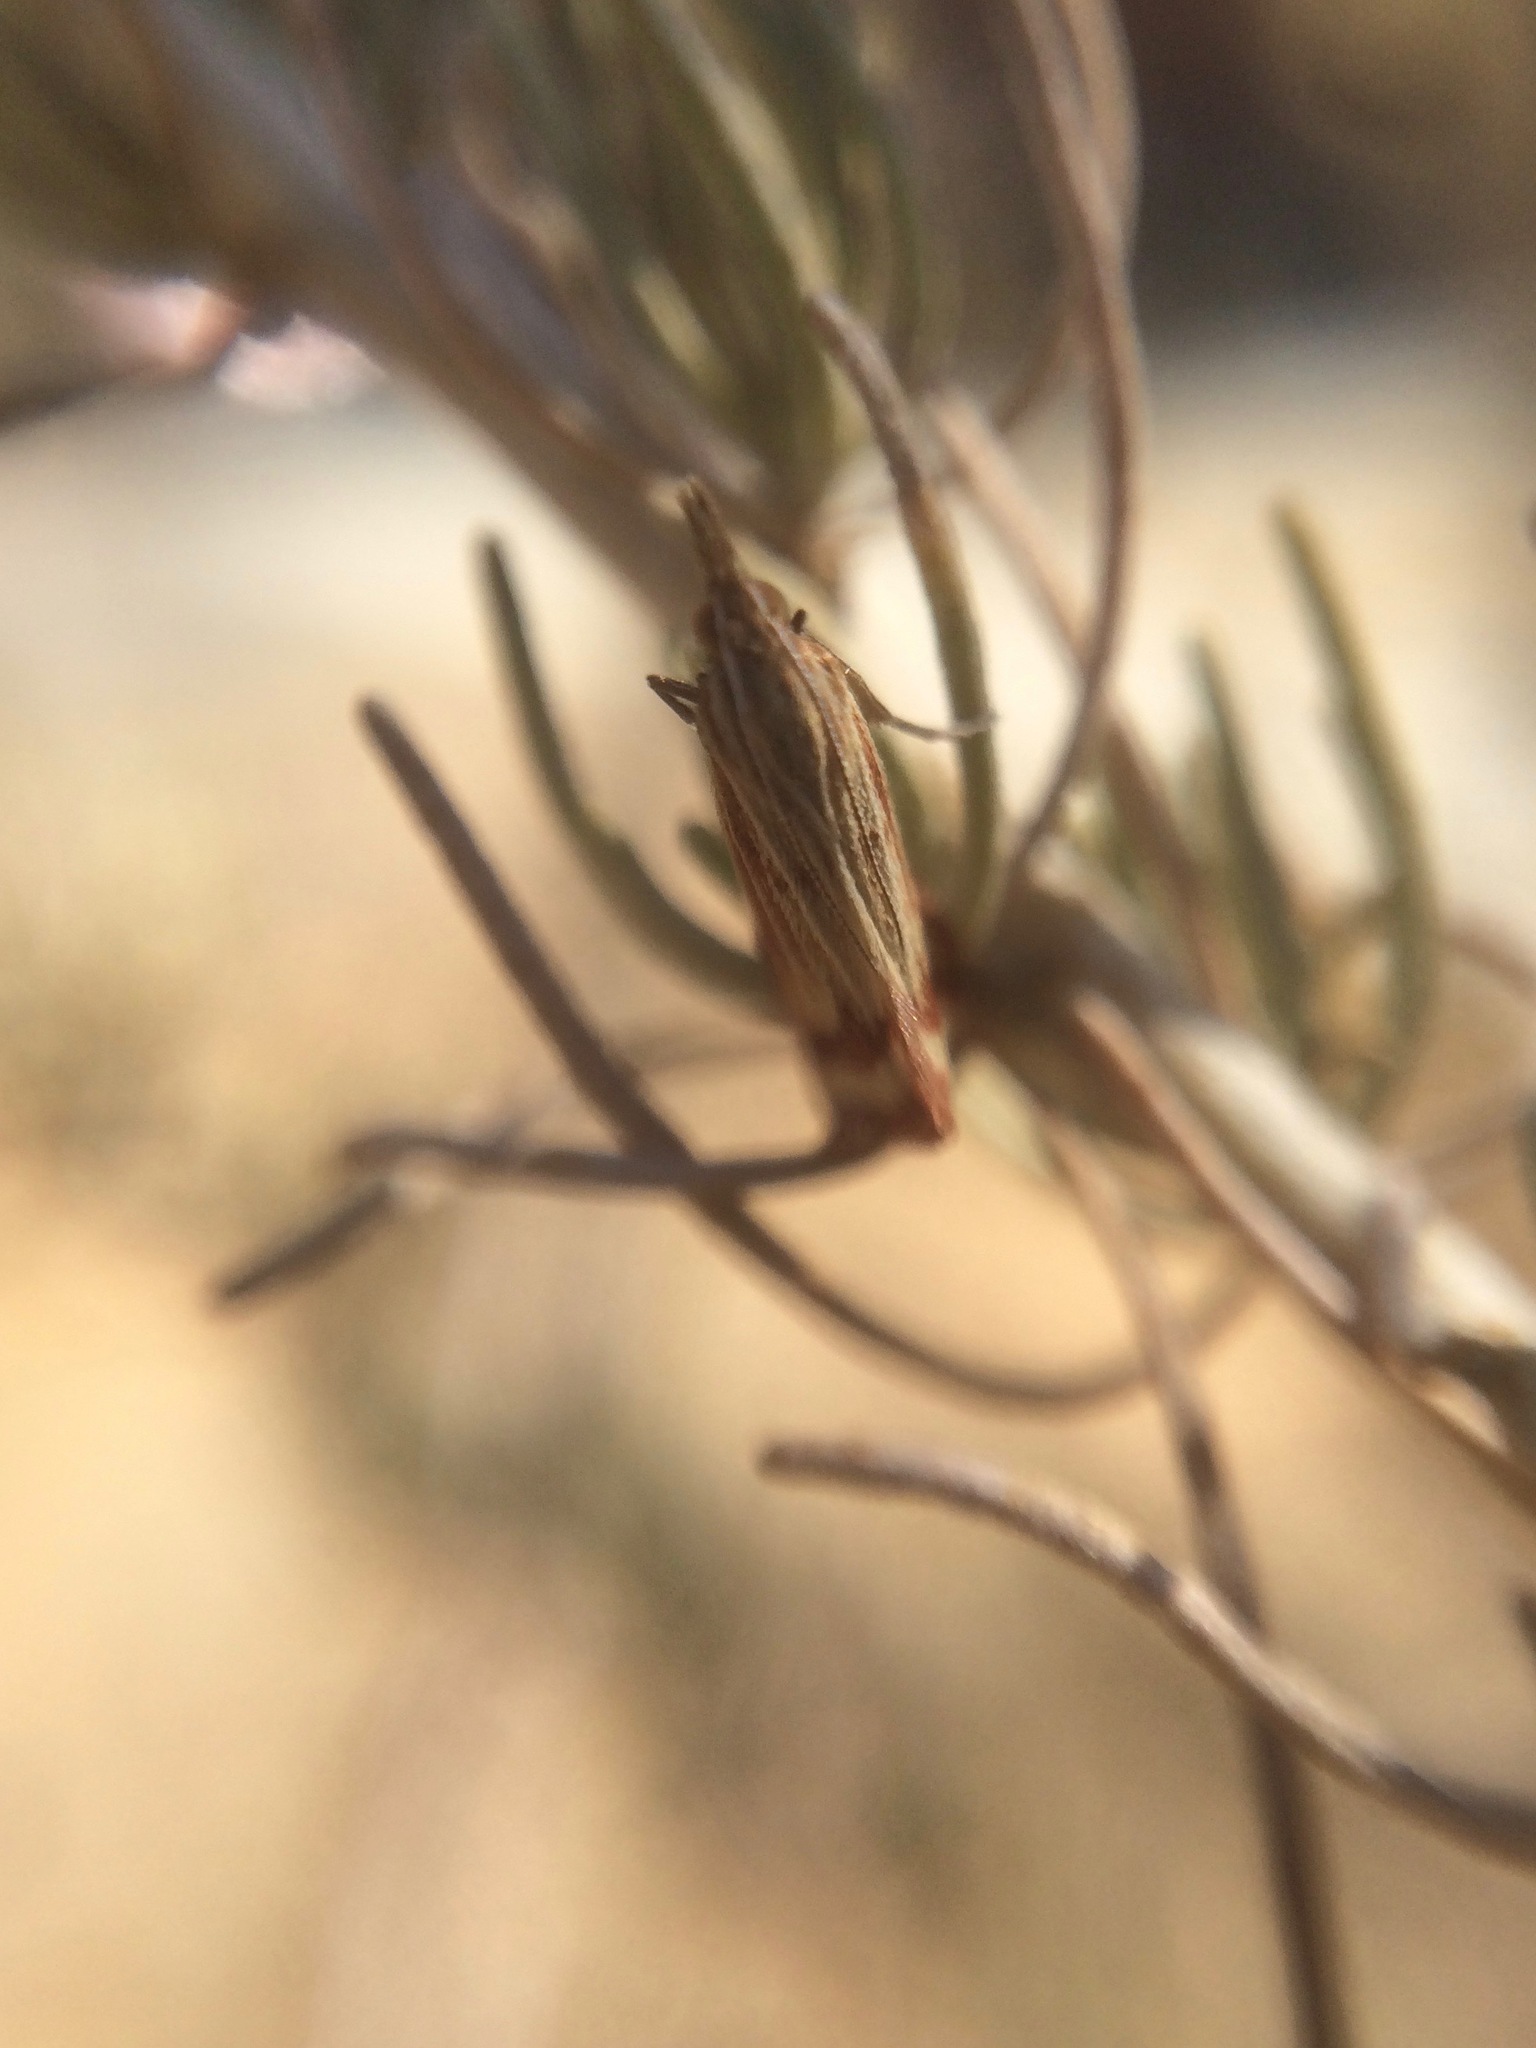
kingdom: Animalia
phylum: Arthropoda
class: Insecta
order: Lepidoptera
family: Crambidae
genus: Microtheoris
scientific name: Microtheoris ophionalis
